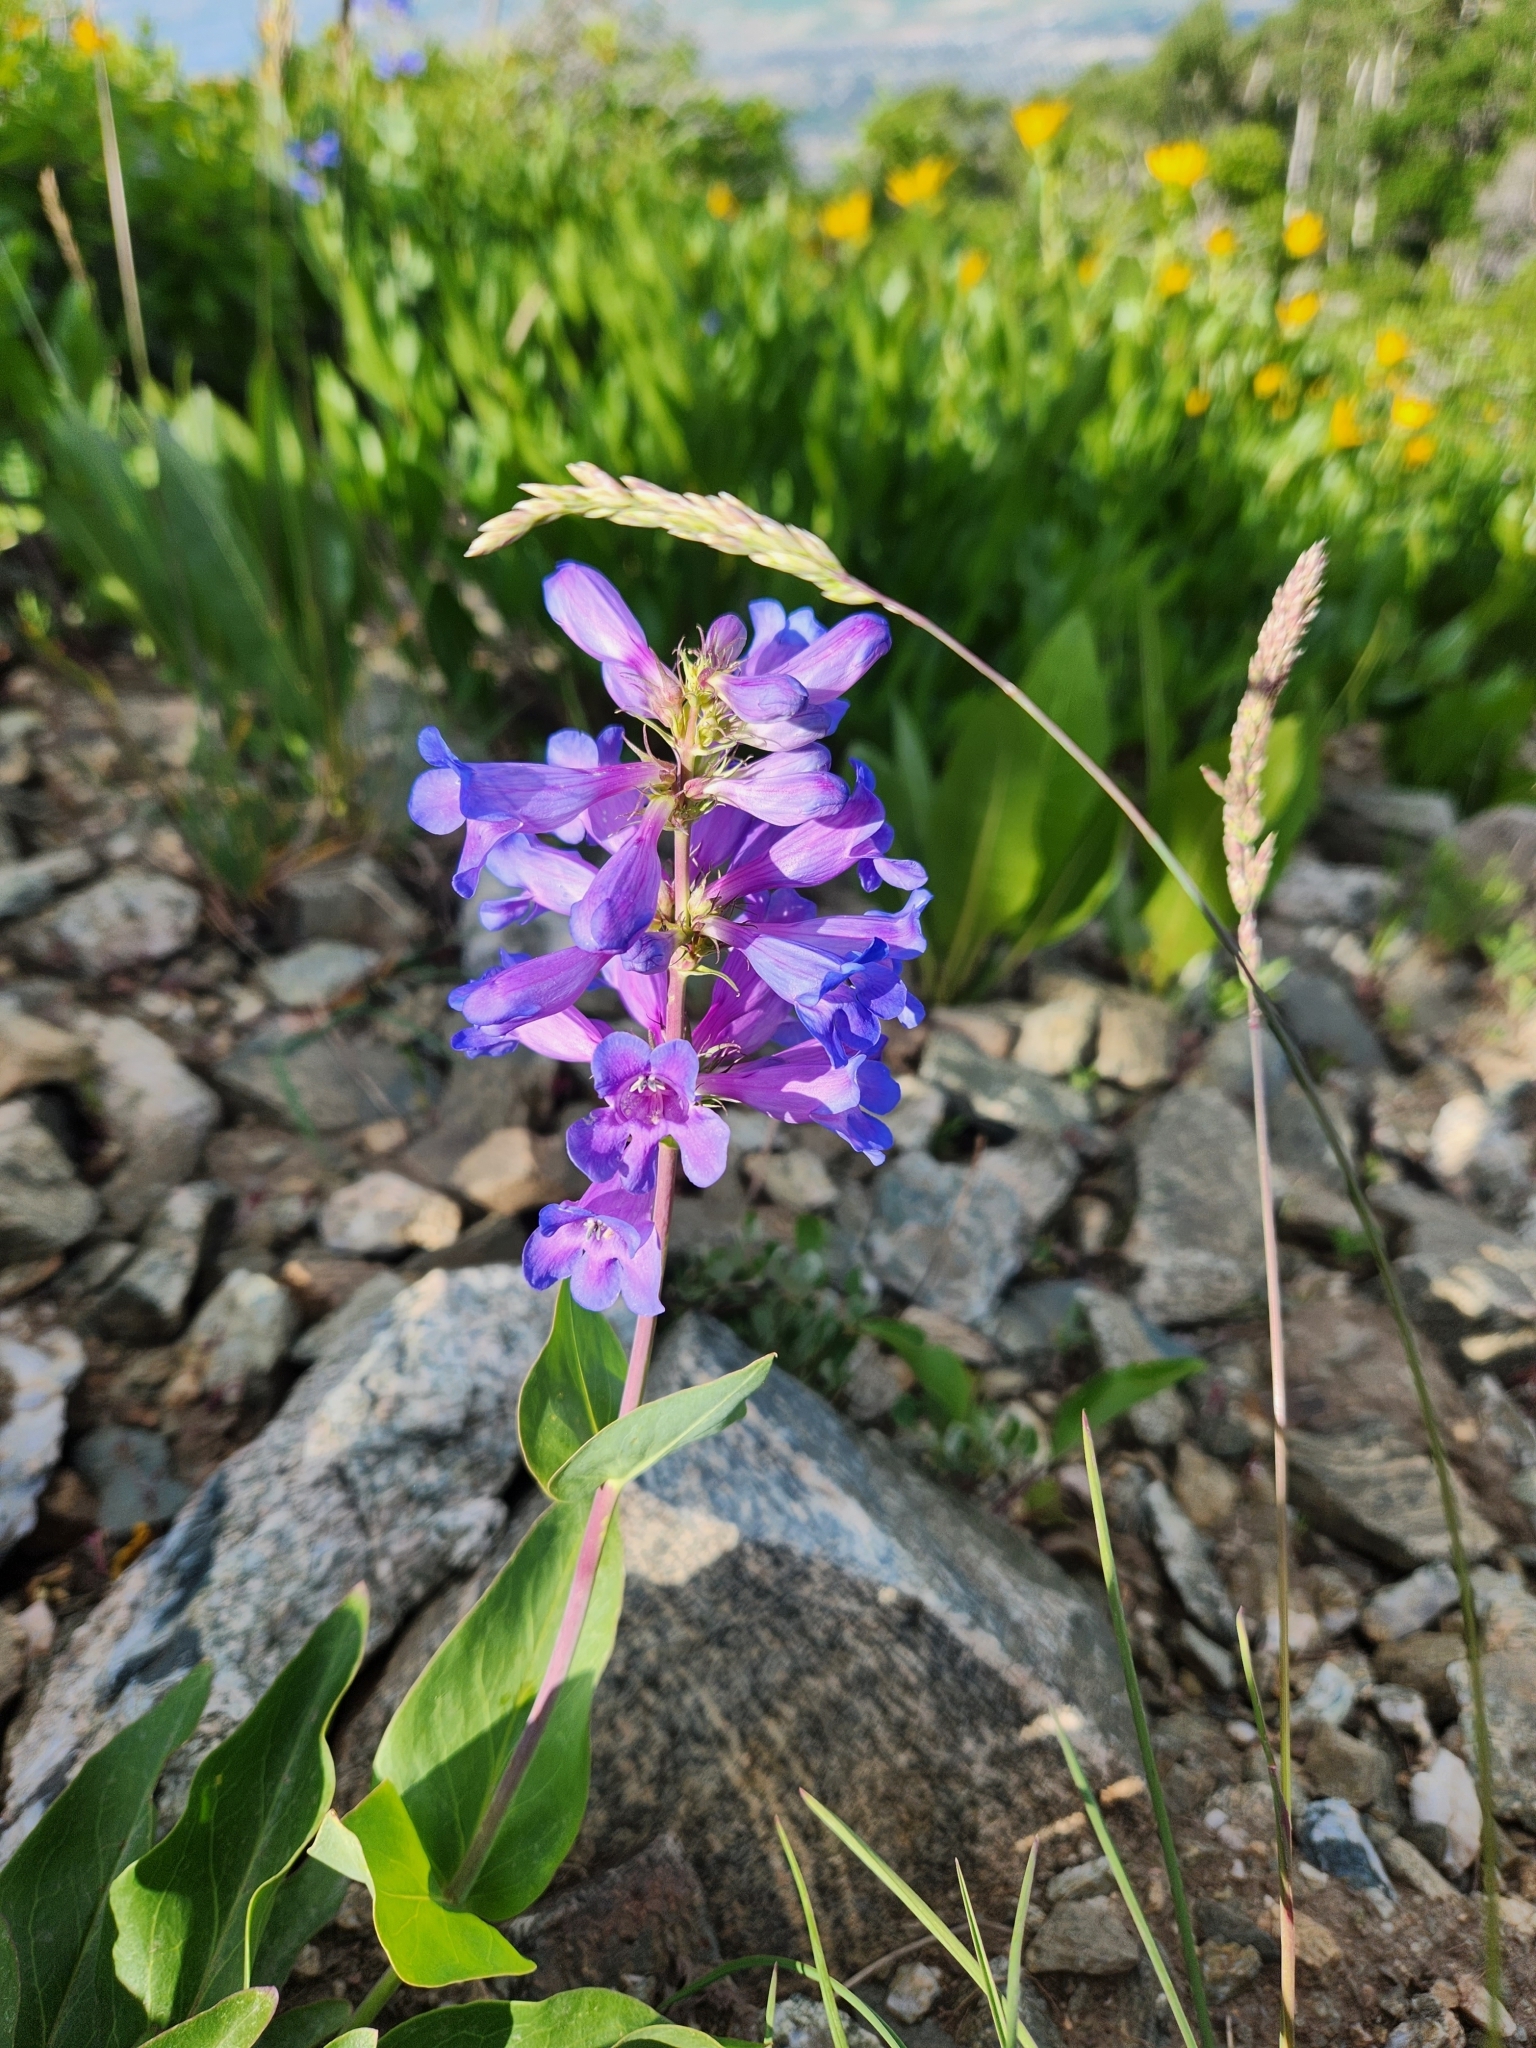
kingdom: Plantae
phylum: Tracheophyta
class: Magnoliopsida
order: Lamiales
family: Plantaginaceae
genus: Penstemon
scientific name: Penstemon cyananthus
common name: Wasatch penstemon
